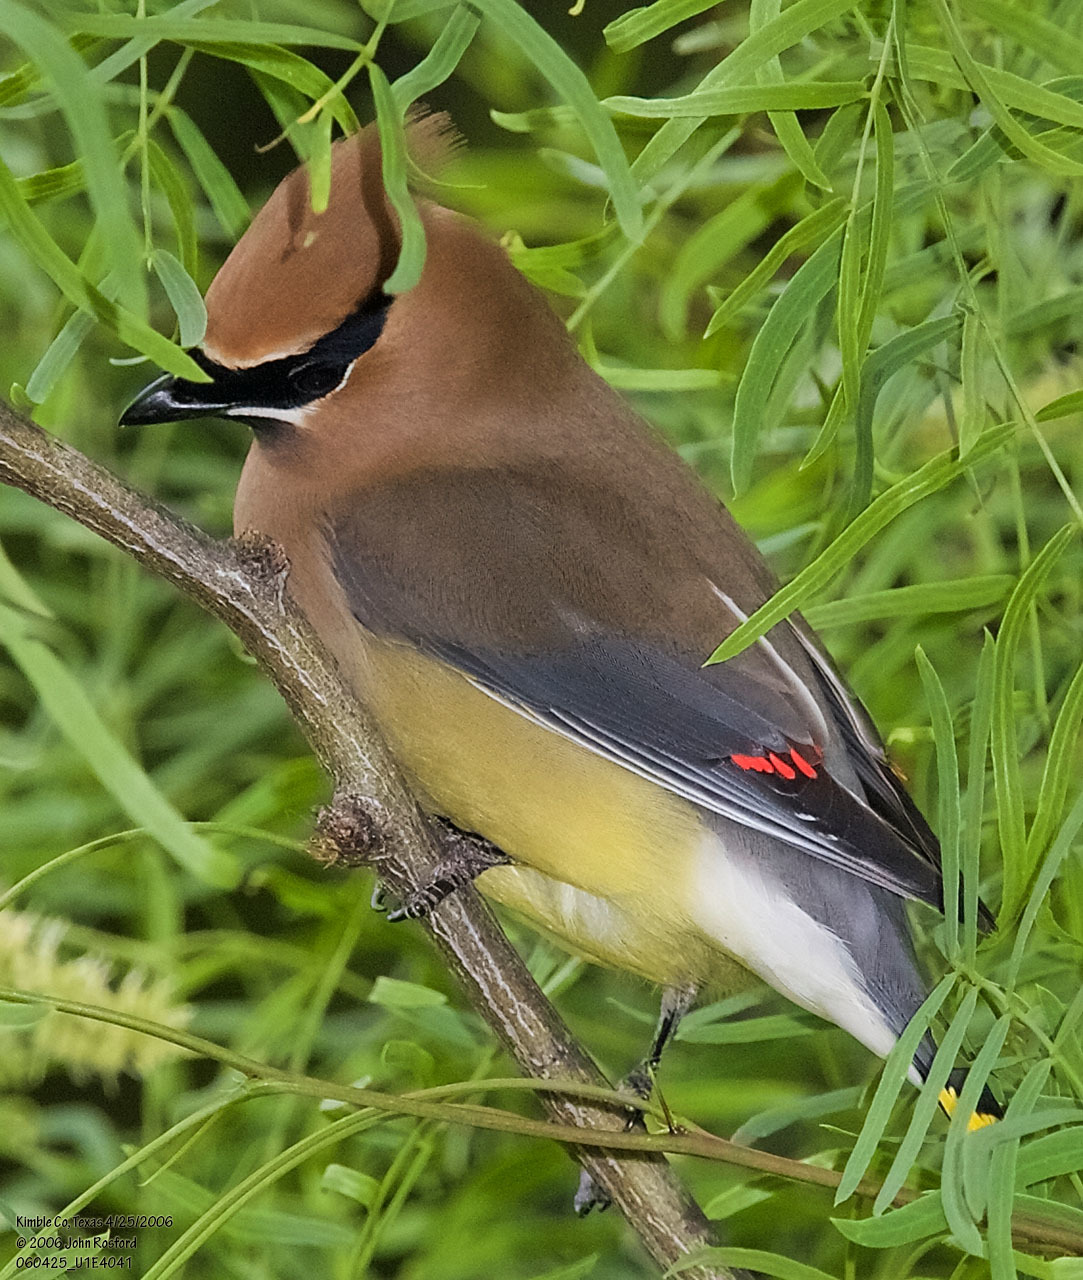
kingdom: Animalia
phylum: Chordata
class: Aves
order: Passeriformes
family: Bombycillidae
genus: Bombycilla
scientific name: Bombycilla cedrorum
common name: Cedar waxwing
